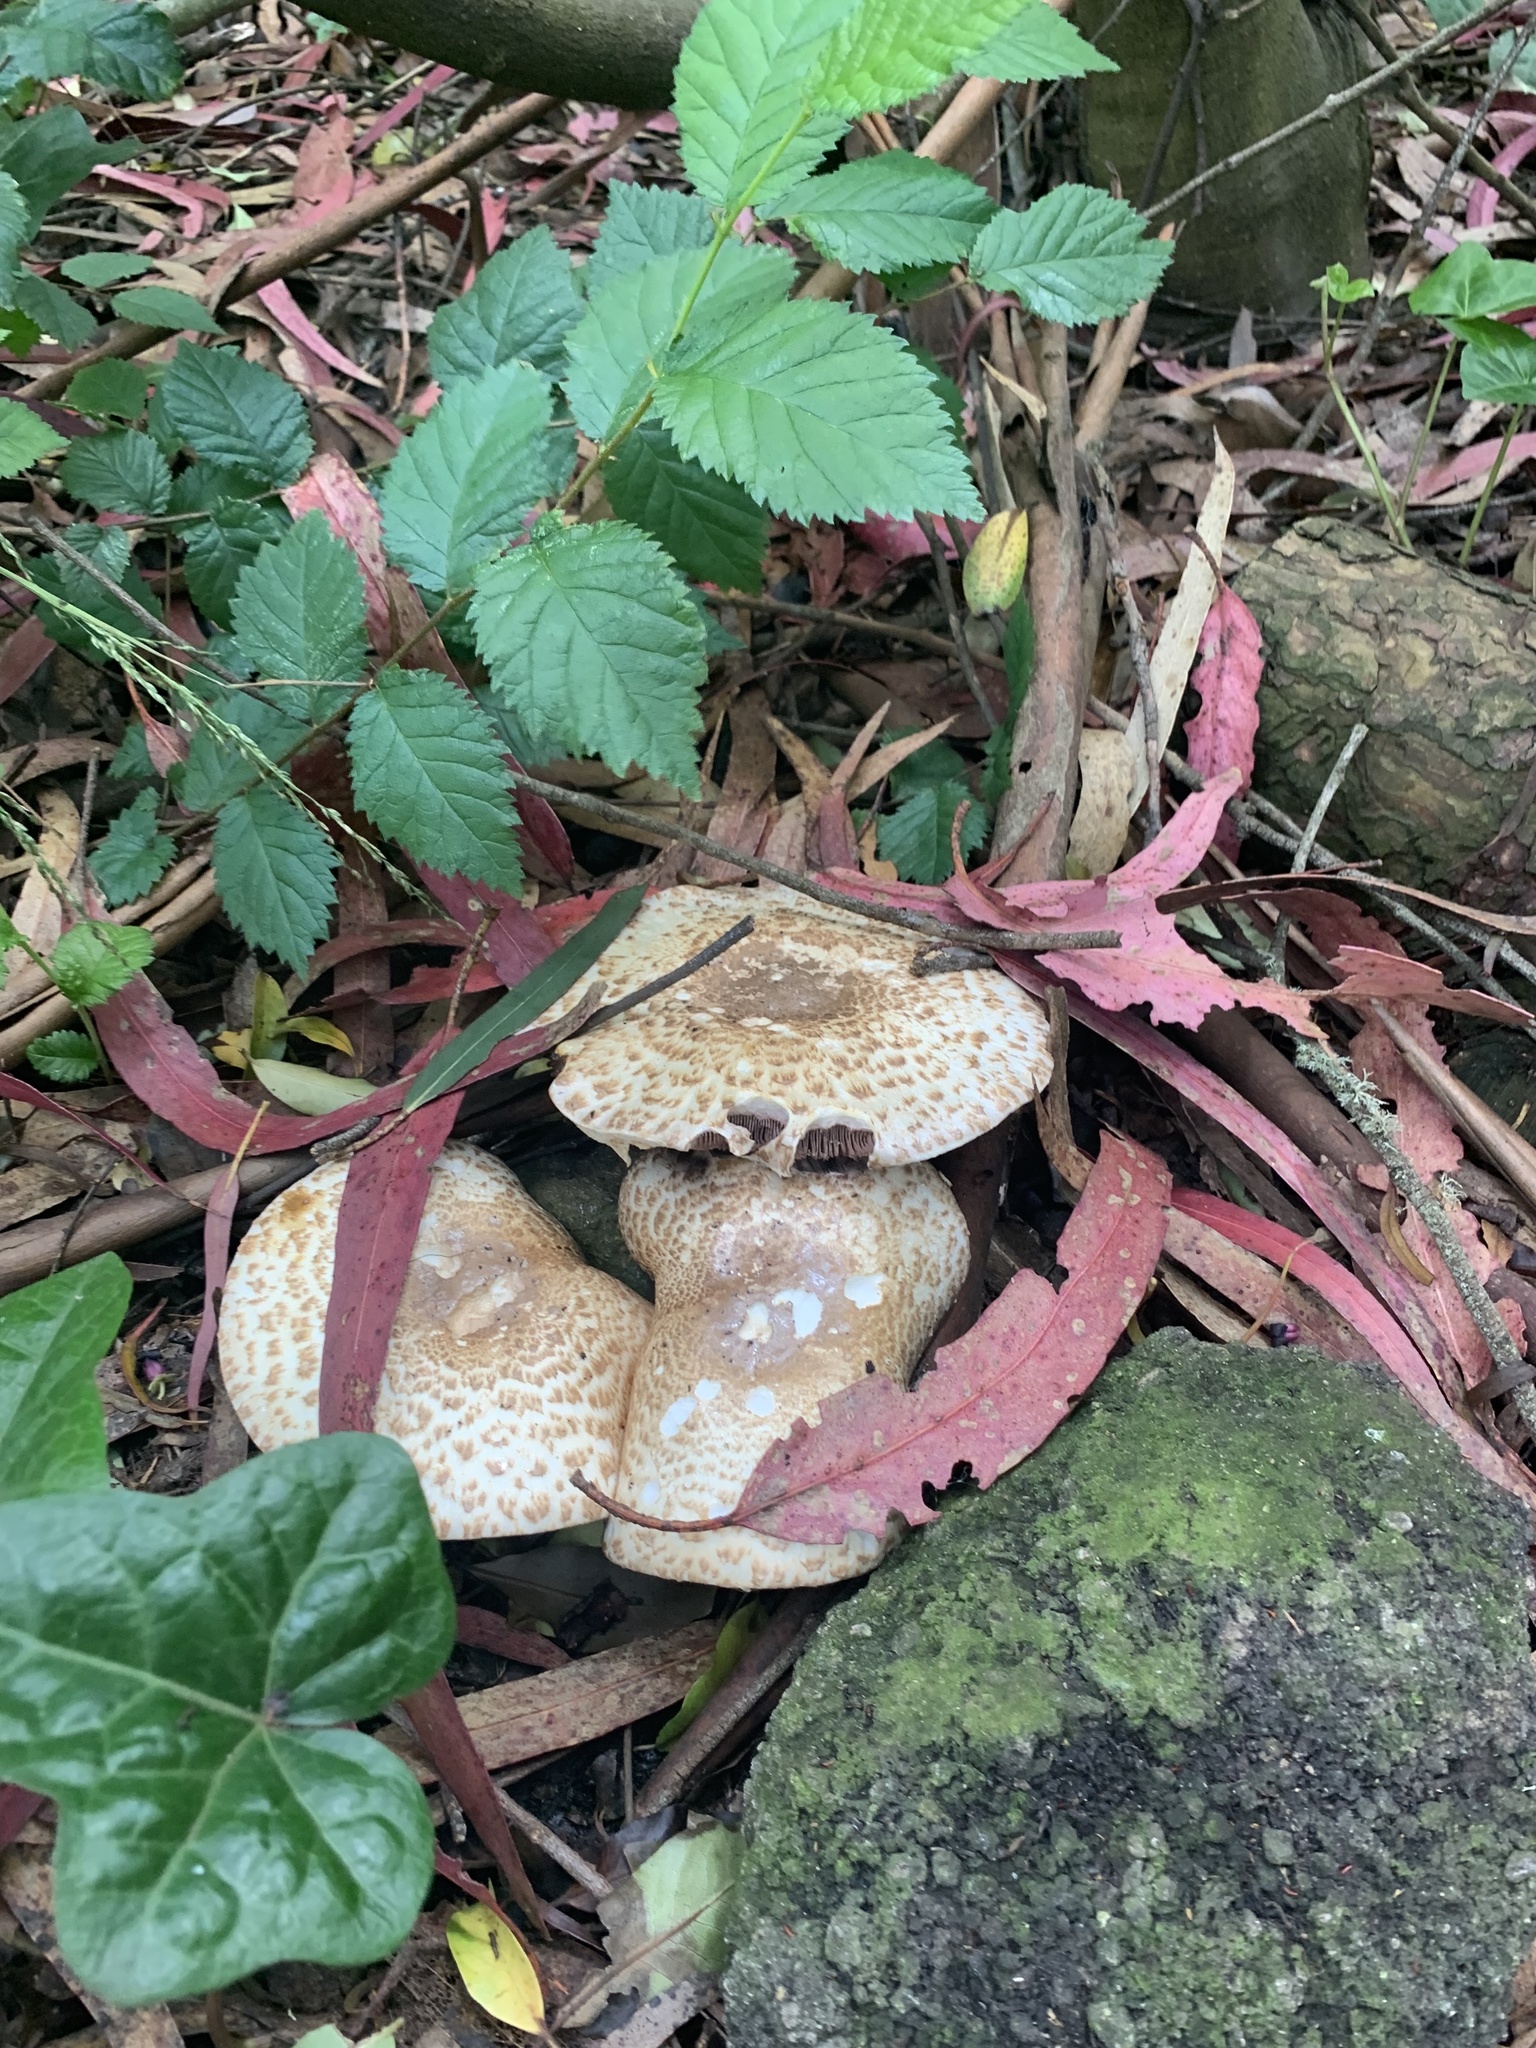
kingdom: Fungi
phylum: Basidiomycota
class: Agaricomycetes
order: Agaricales
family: Agaricaceae
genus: Agaricus
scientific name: Agaricus augustus
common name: Prince
